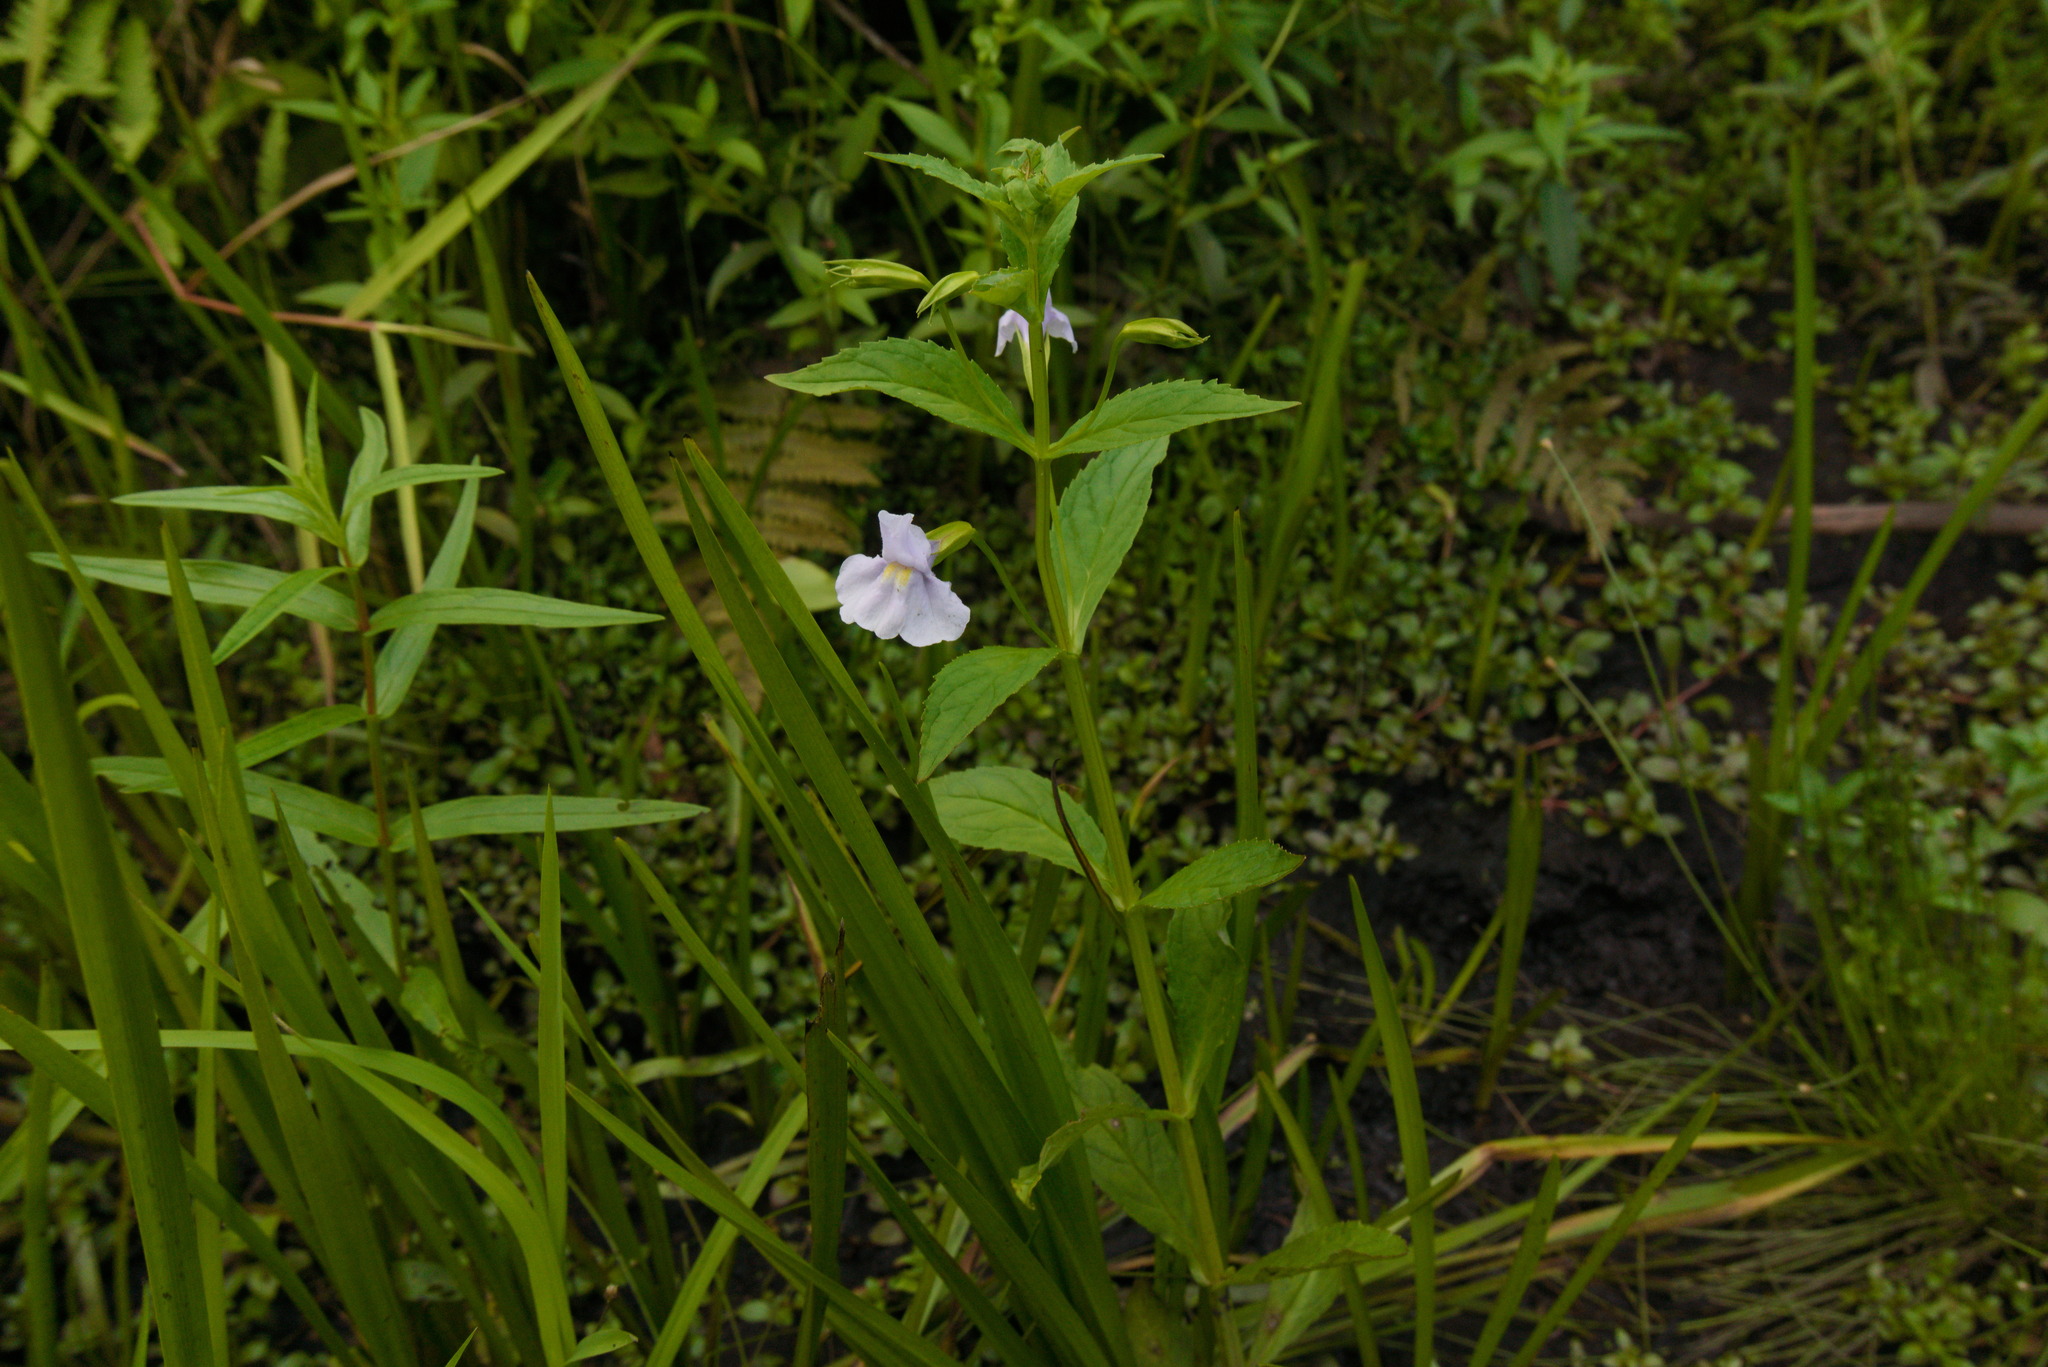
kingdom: Plantae
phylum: Tracheophyta
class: Magnoliopsida
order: Lamiales
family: Phrymaceae
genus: Mimulus
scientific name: Mimulus ringens
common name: Allegheny monkeyflower
